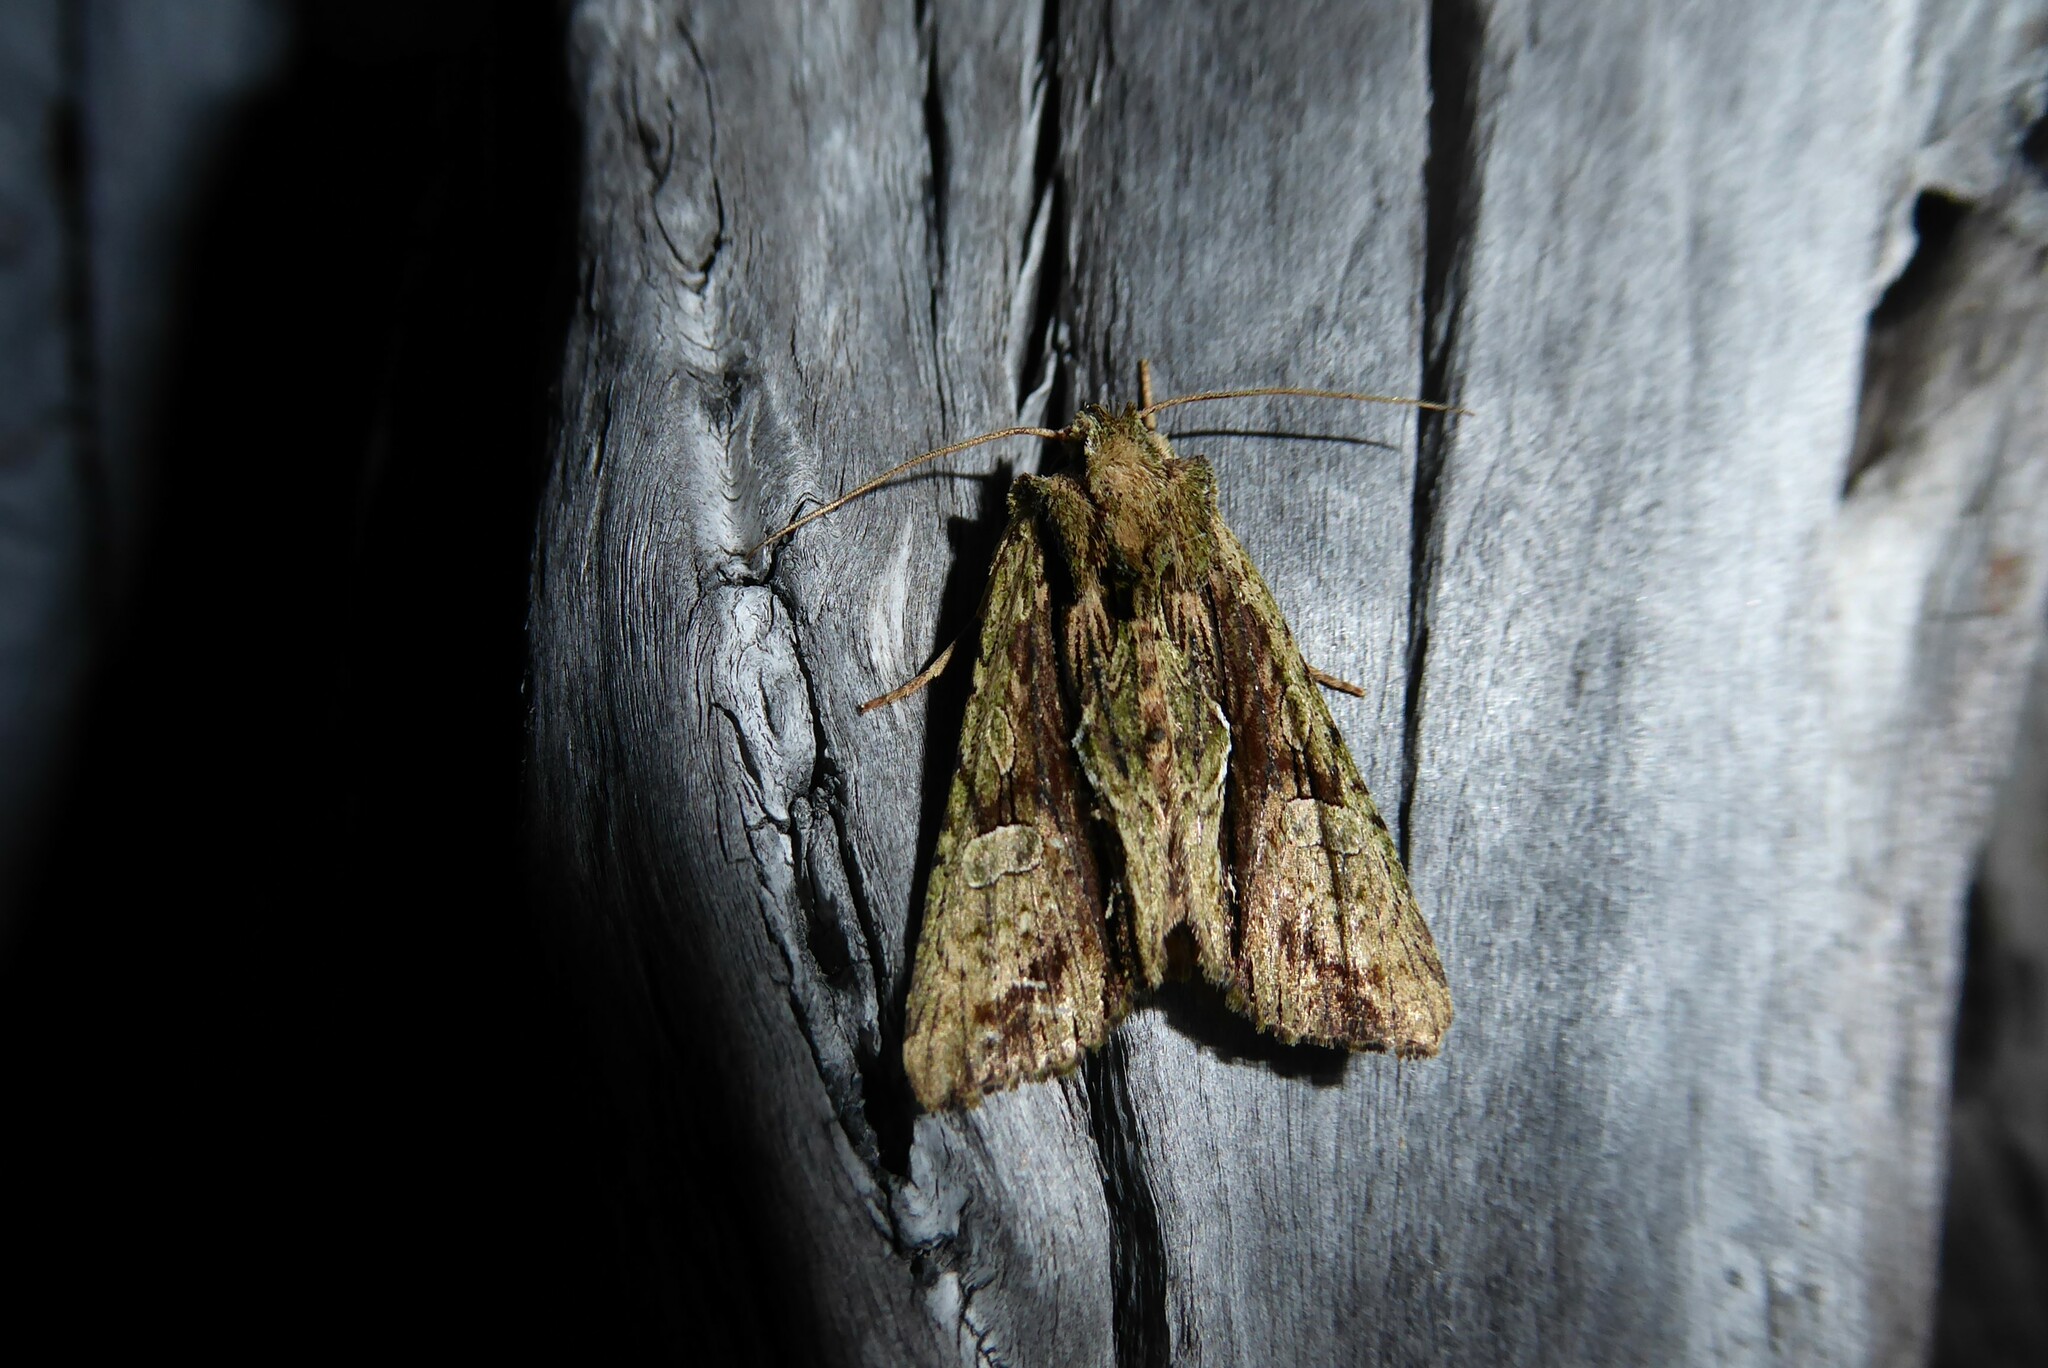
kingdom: Animalia
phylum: Arthropoda
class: Insecta
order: Lepidoptera
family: Noctuidae
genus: Meterana
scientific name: Meterana decorata
